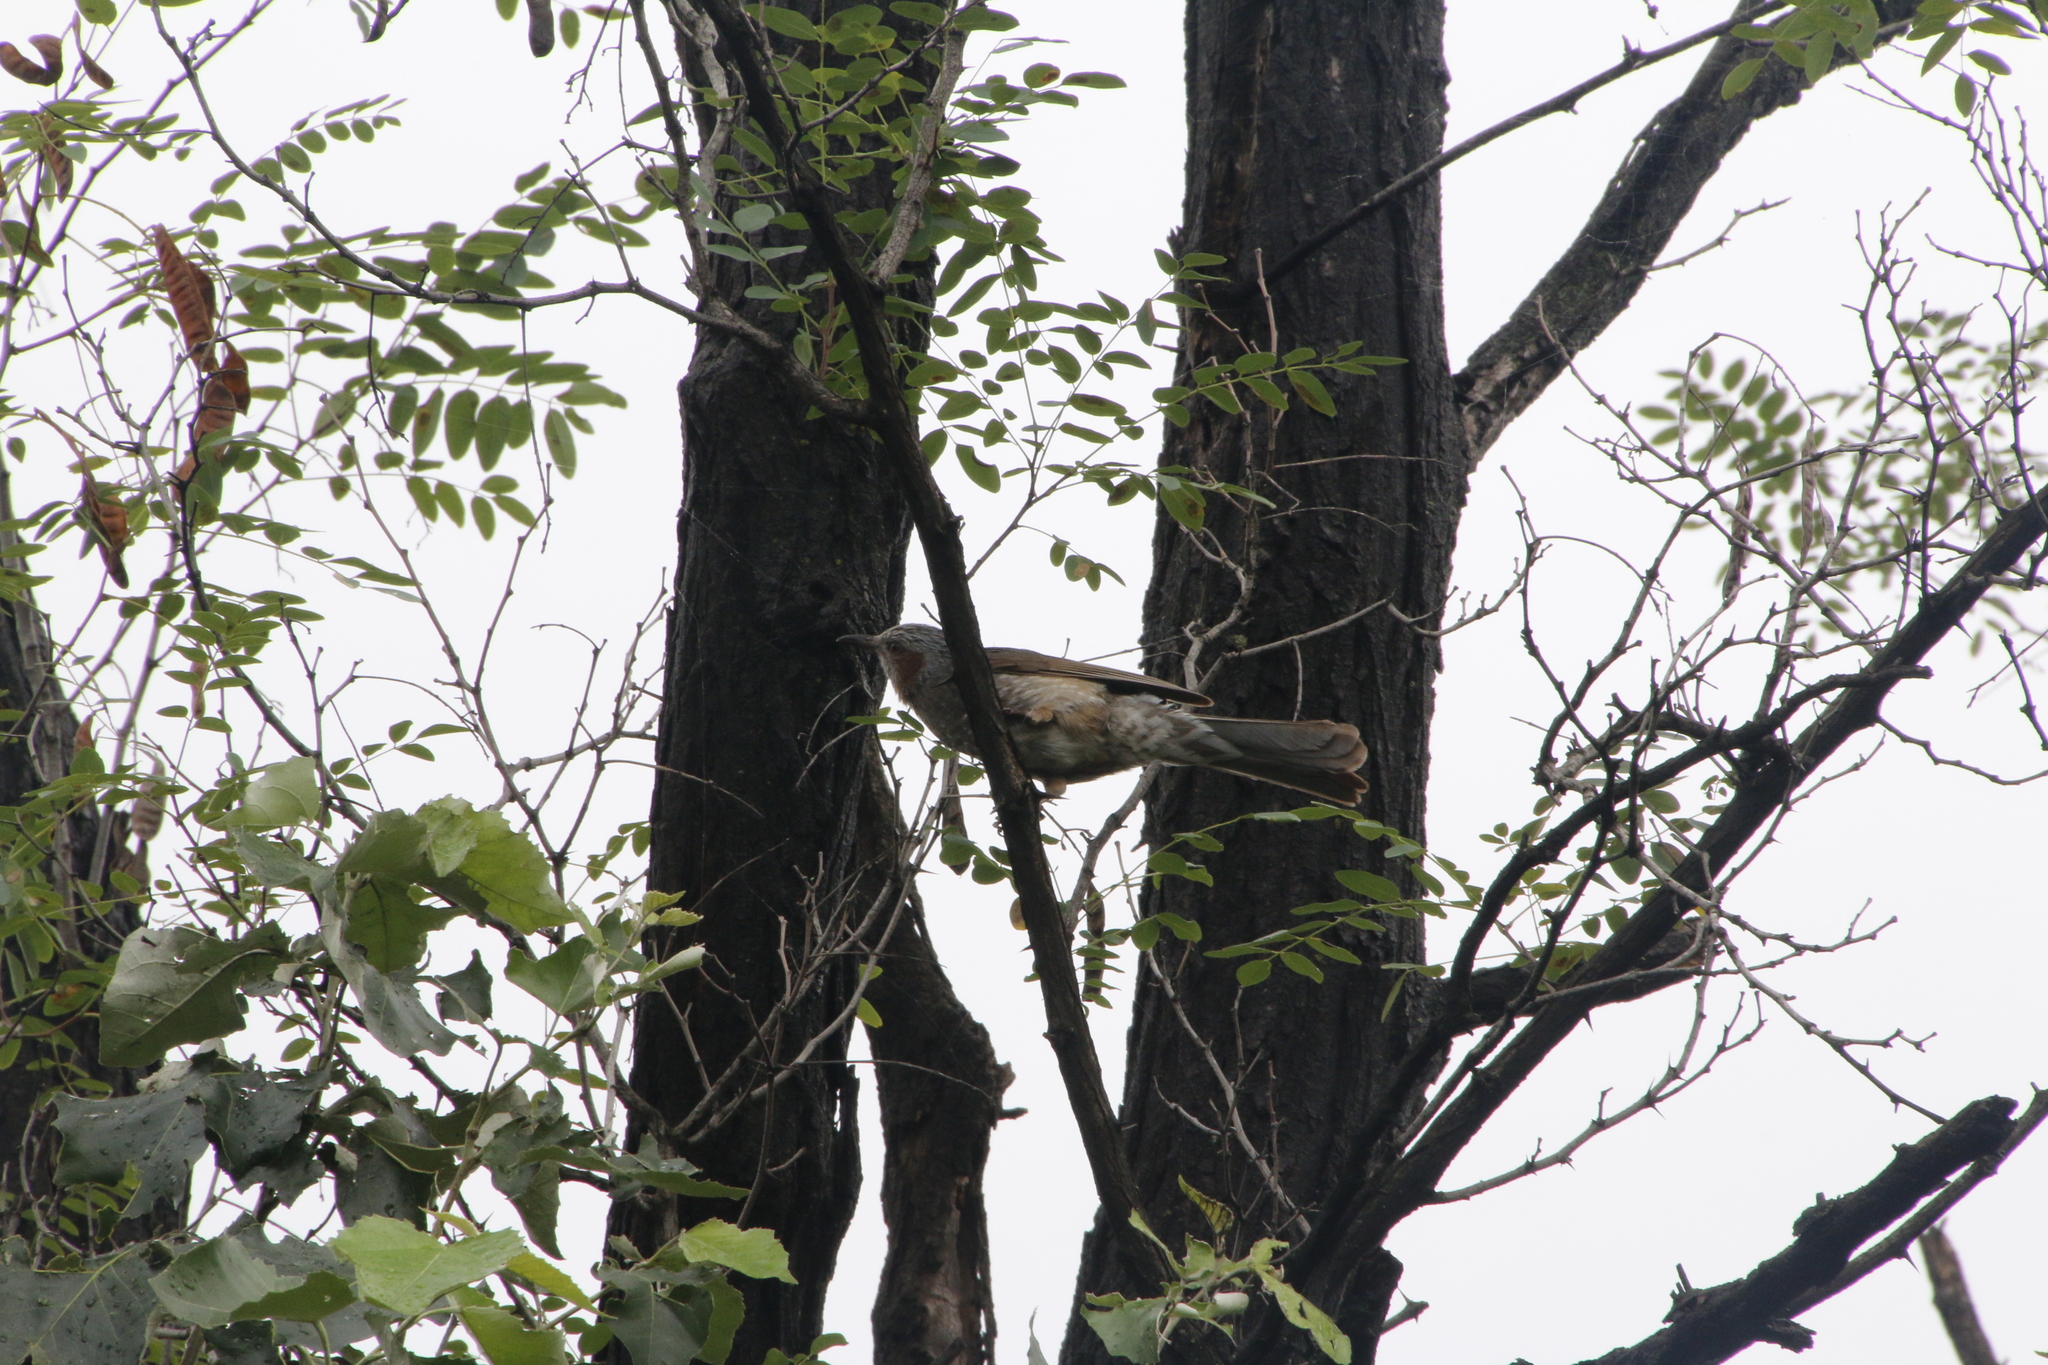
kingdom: Animalia
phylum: Chordata
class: Aves
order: Passeriformes
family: Pycnonotidae
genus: Hypsipetes
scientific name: Hypsipetes amaurotis
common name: Brown-eared bulbul
